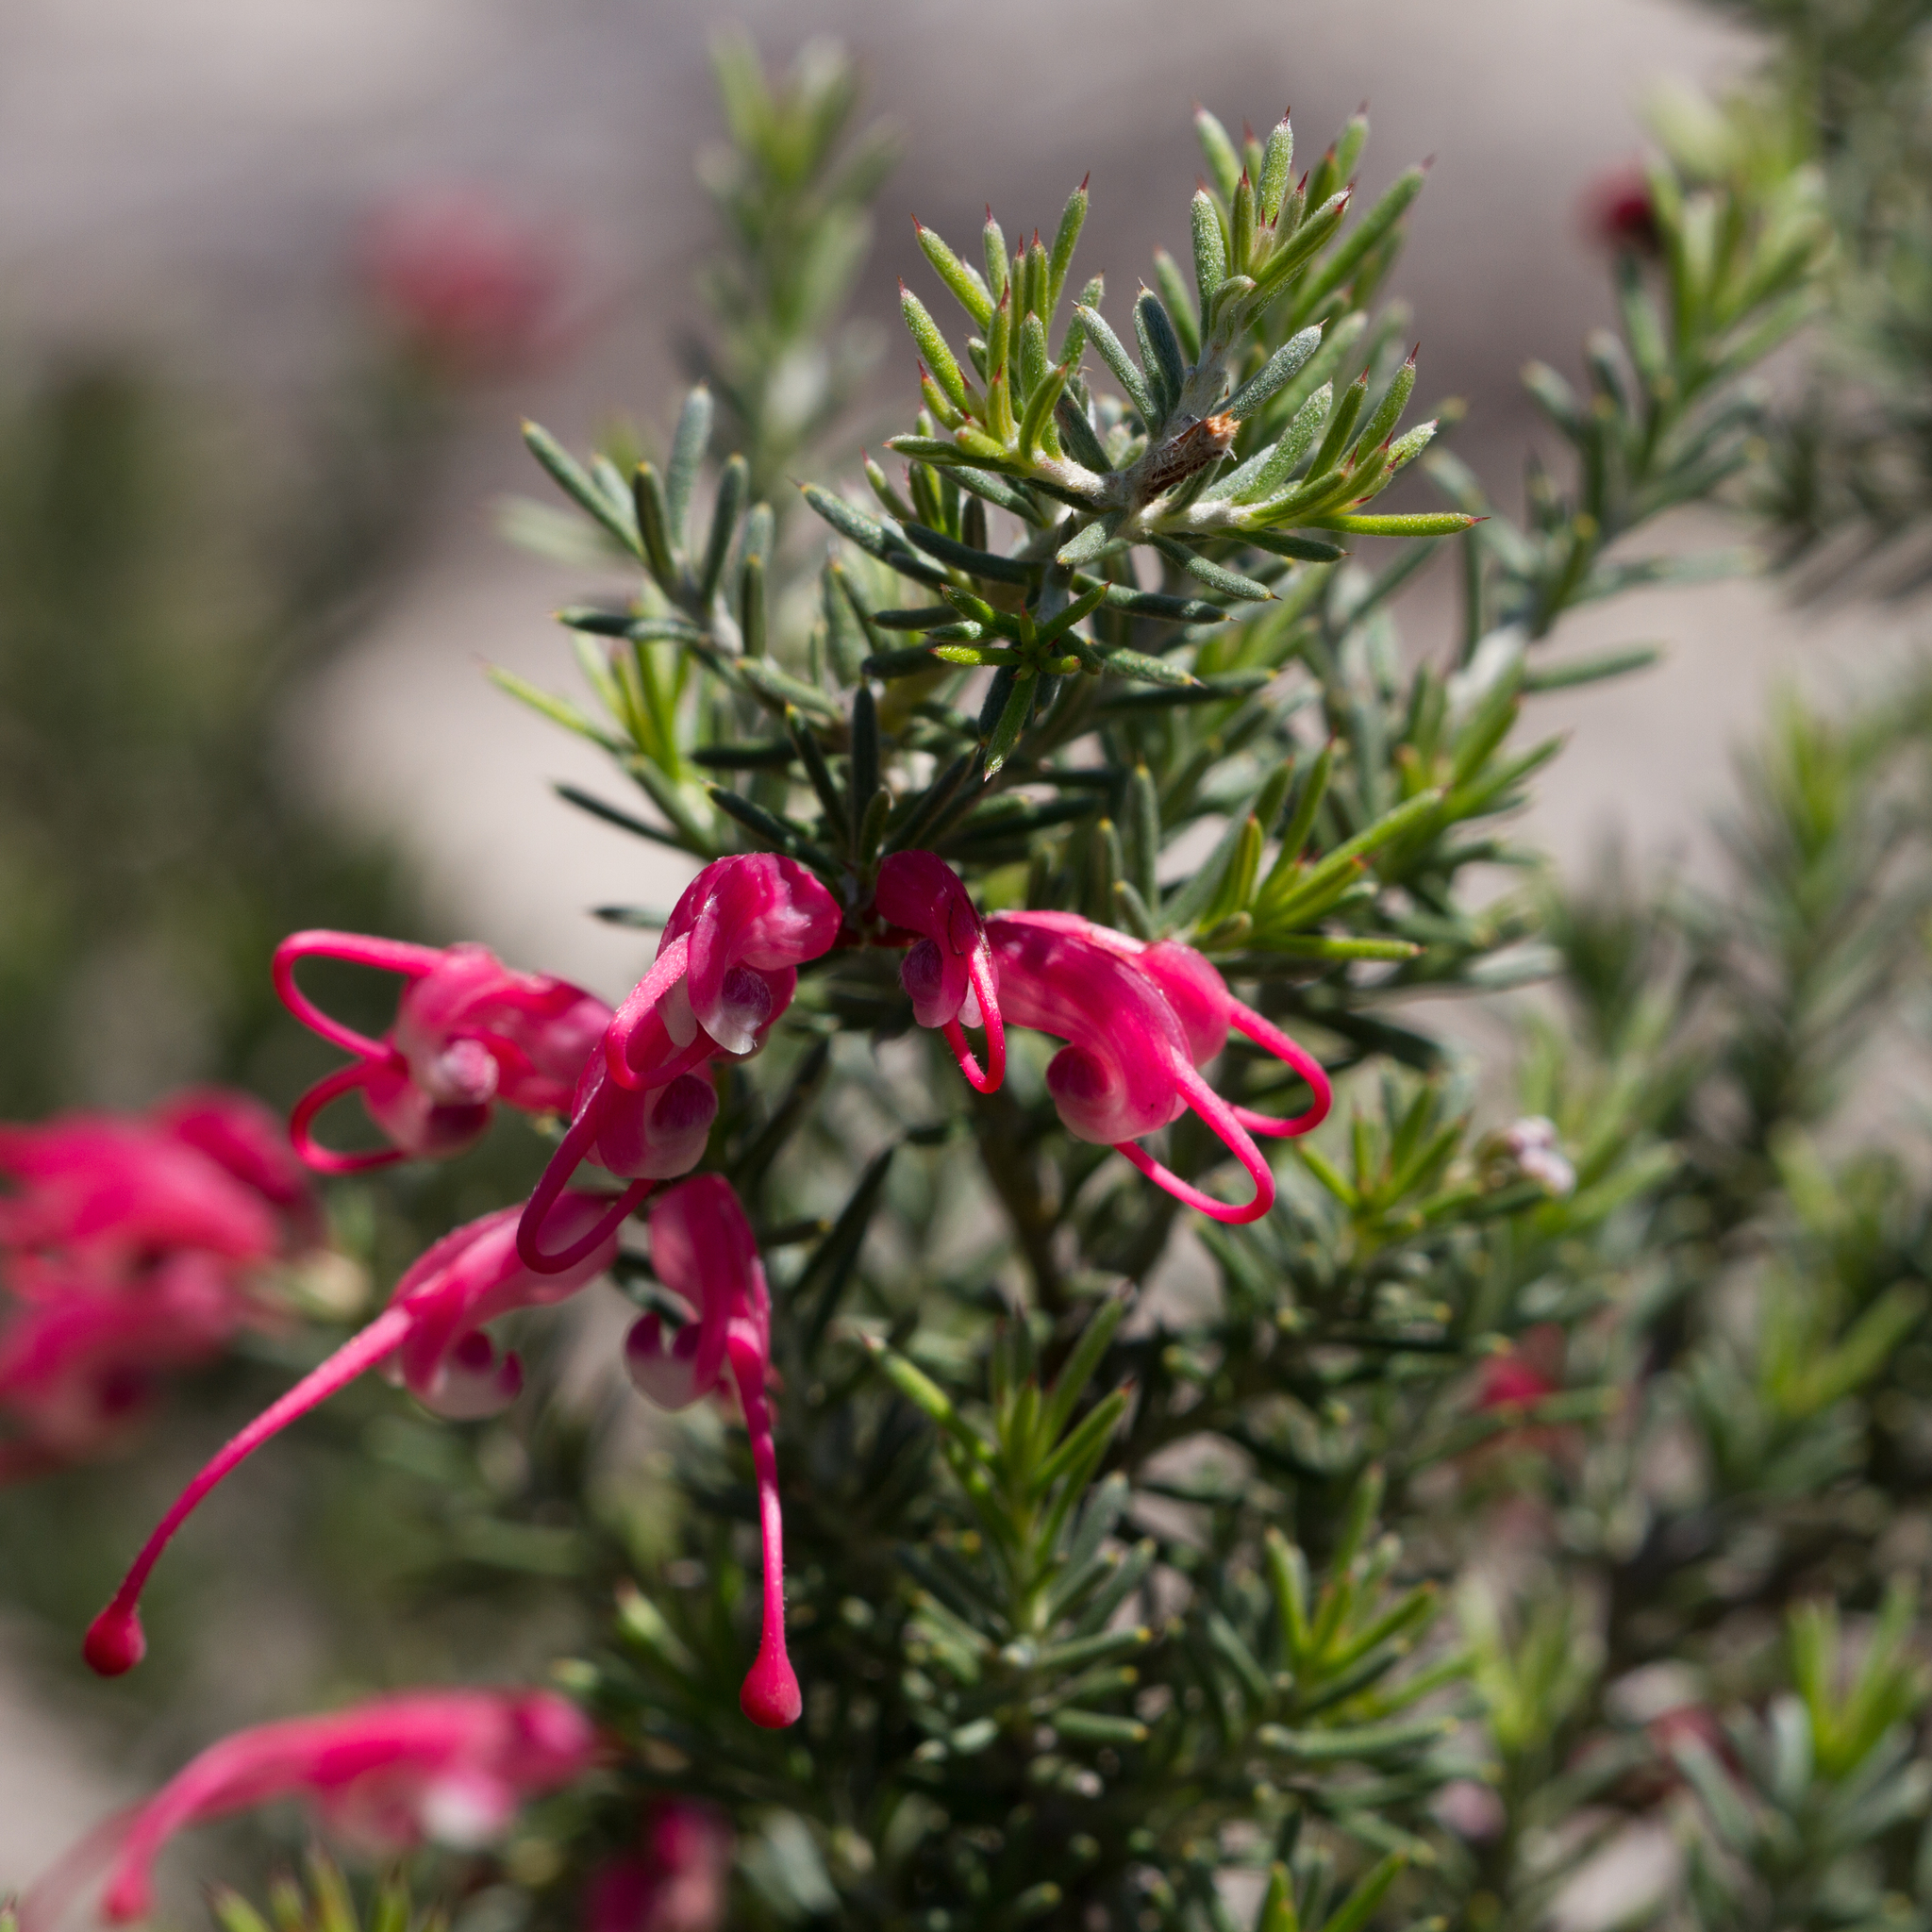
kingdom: Plantae
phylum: Tracheophyta
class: Magnoliopsida
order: Proteales
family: Proteaceae
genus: Grevillea
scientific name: Grevillea lavandulacea
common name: Lavender grevillea
